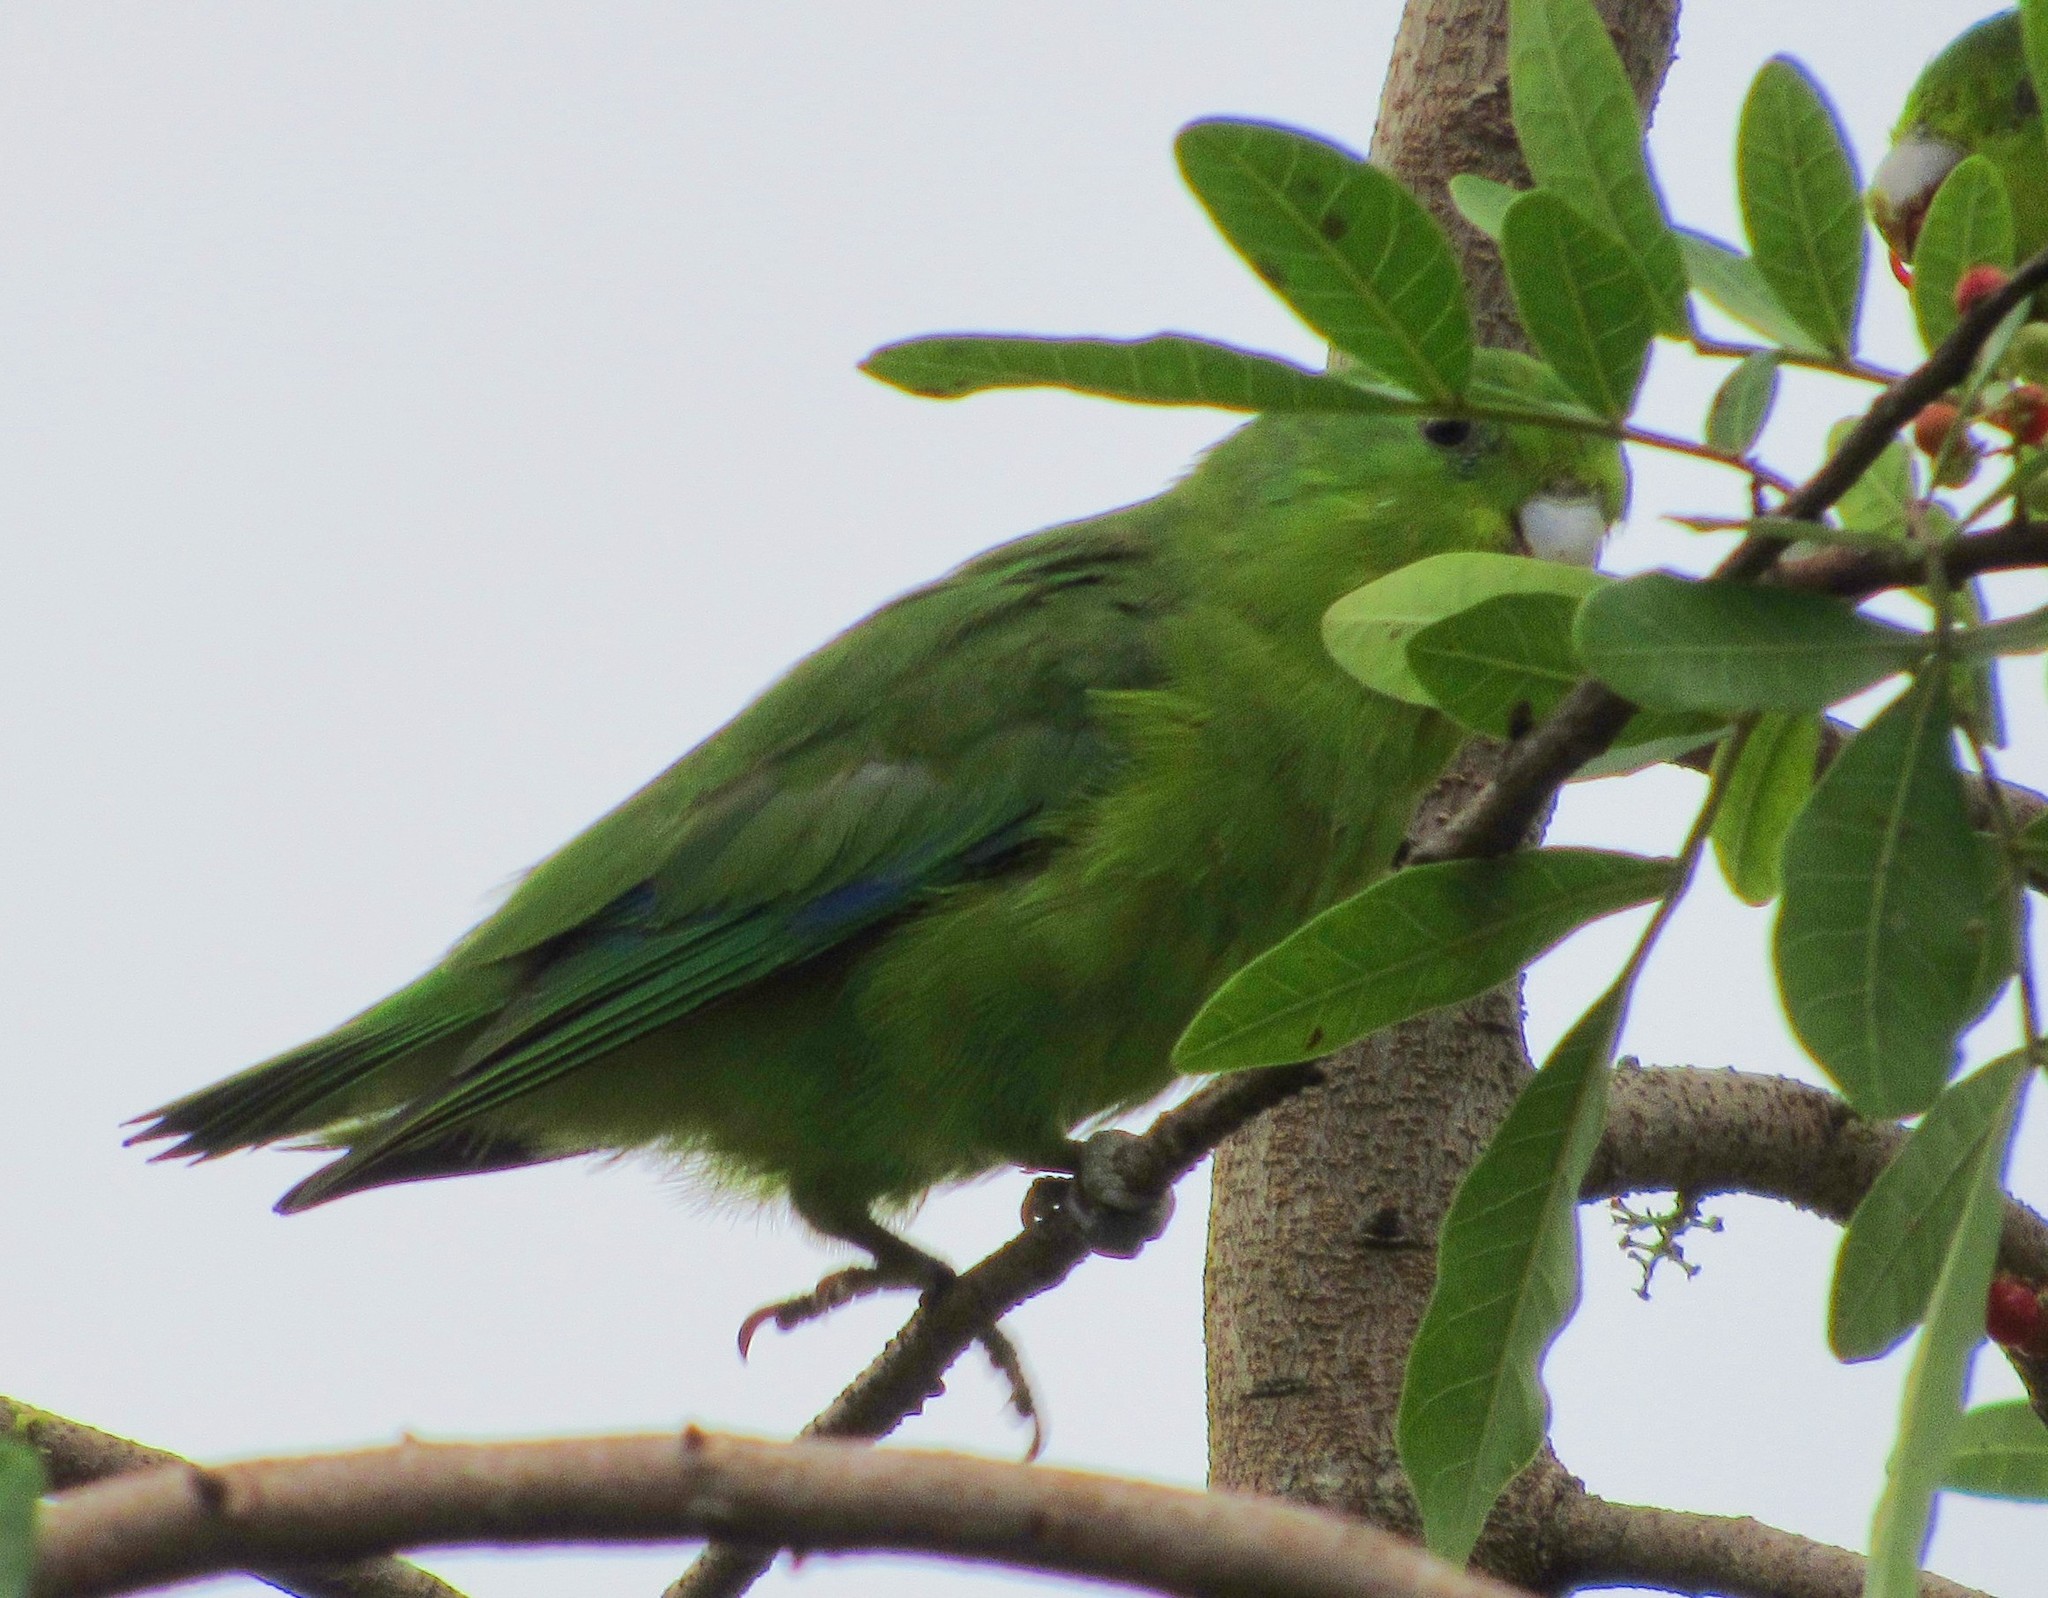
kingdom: Animalia
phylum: Chordata
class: Aves
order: Psittaciformes
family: Psittacidae
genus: Forpus
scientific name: Forpus xanthopterygius
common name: Blue-winged parrotlet
